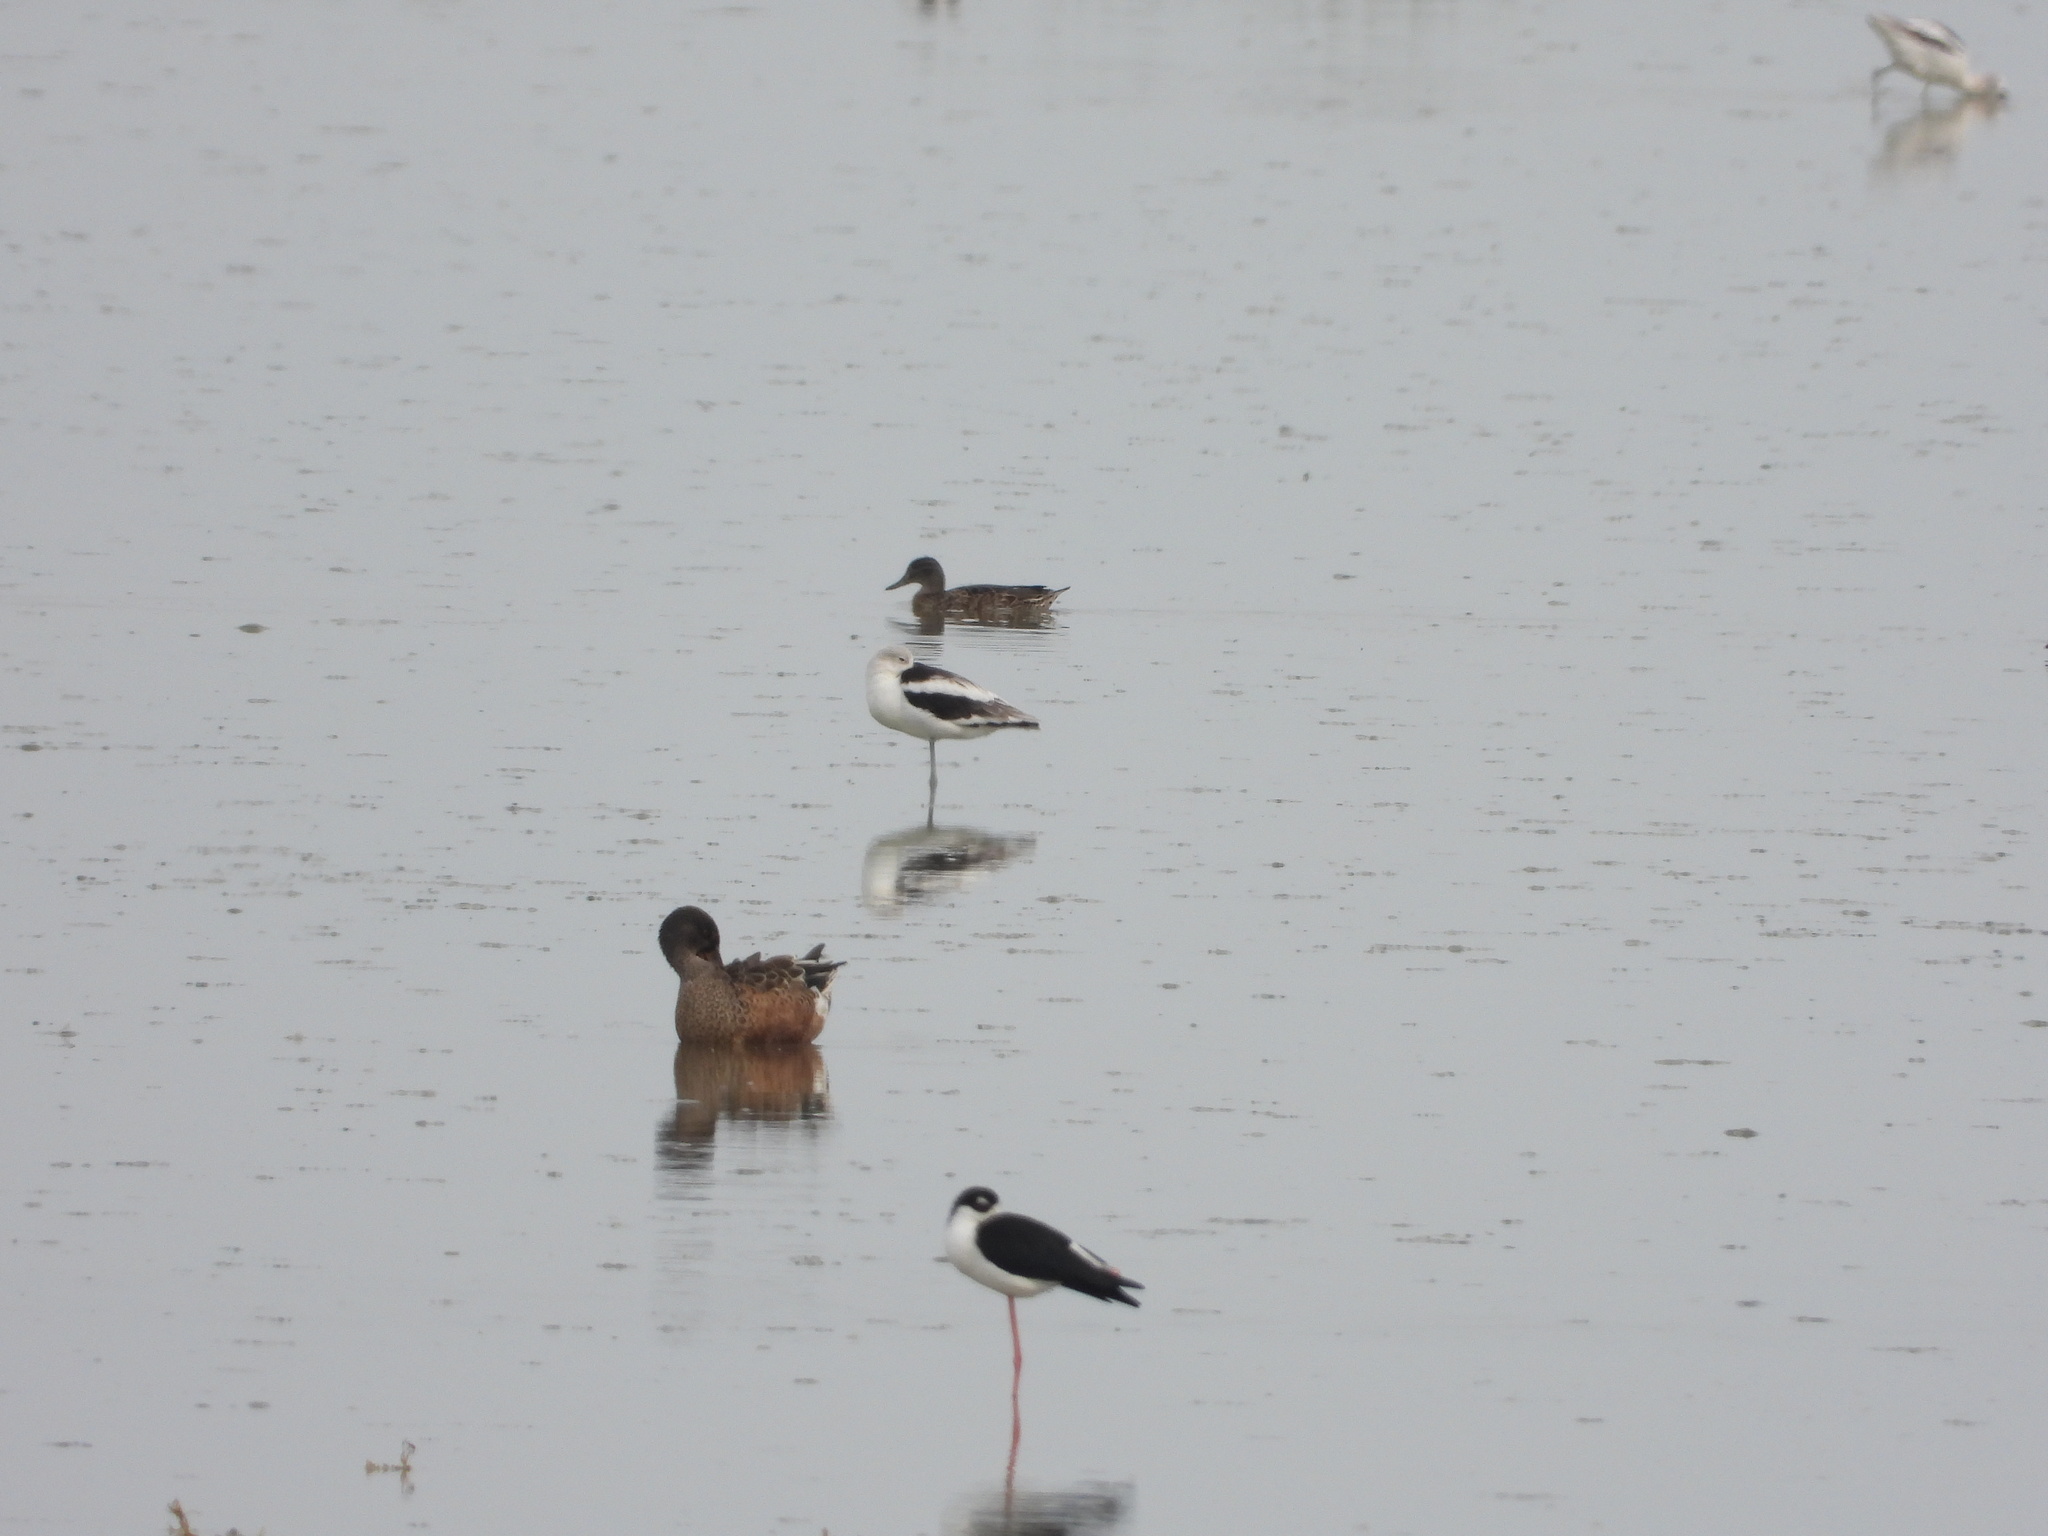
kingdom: Animalia
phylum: Chordata
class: Aves
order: Anseriformes
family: Anatidae
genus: Spatula
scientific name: Spatula clypeata
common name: Northern shoveler
